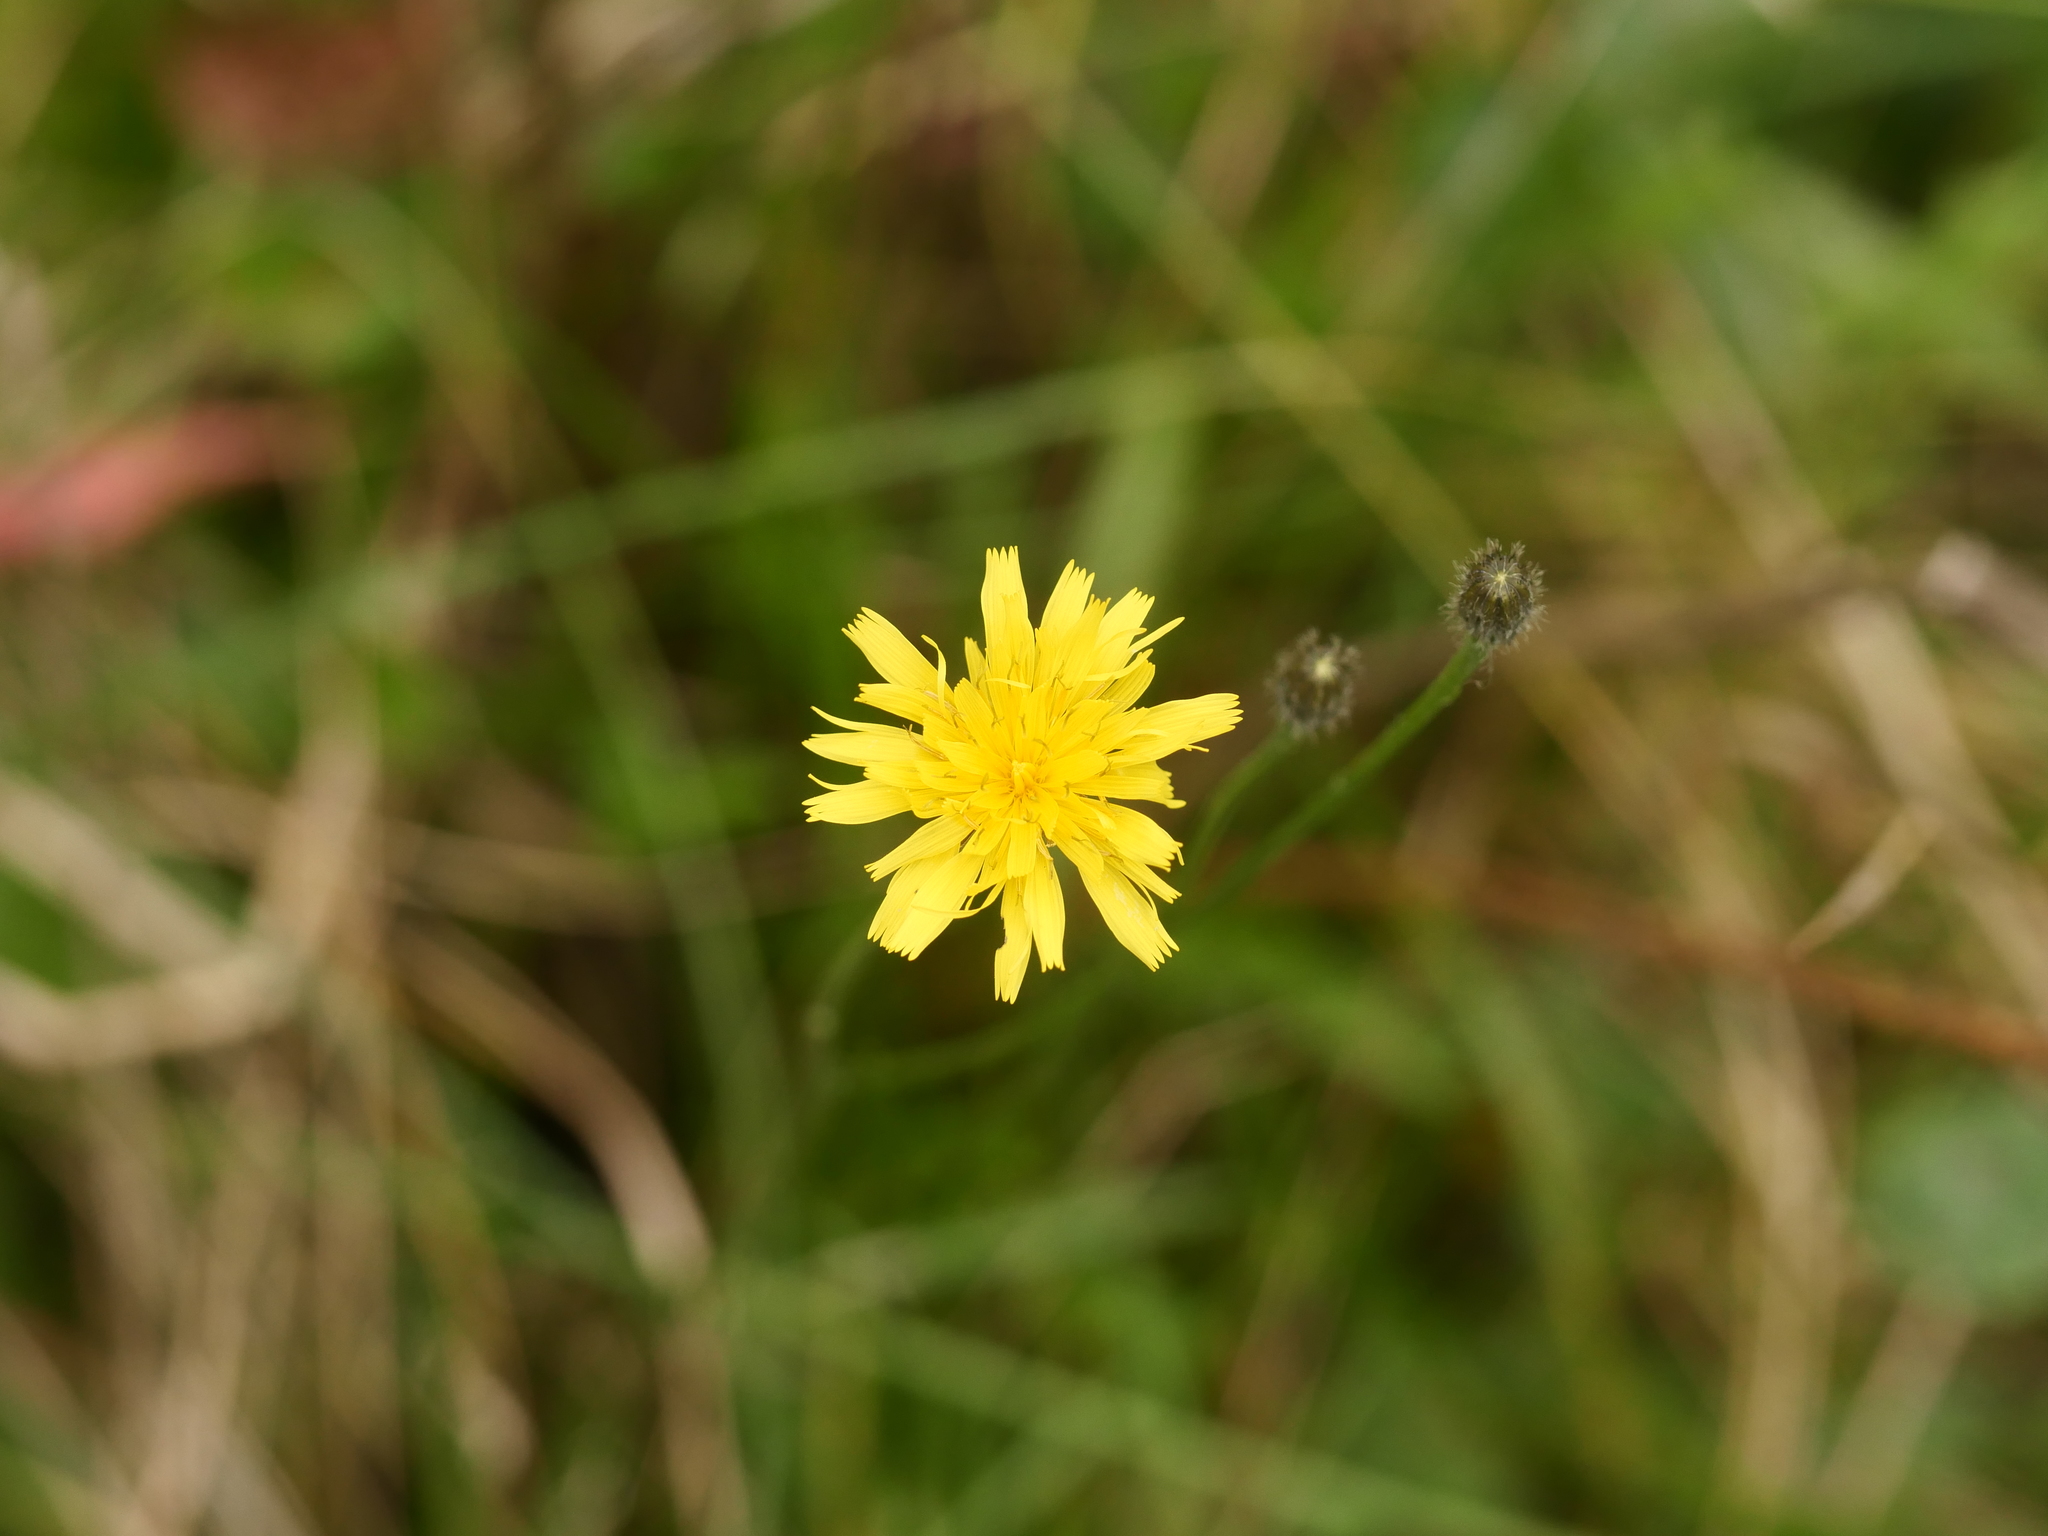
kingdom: Plantae
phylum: Tracheophyta
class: Magnoliopsida
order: Asterales
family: Asteraceae
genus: Scorzoneroides
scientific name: Scorzoneroides autumnalis
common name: Autumn hawkbit
